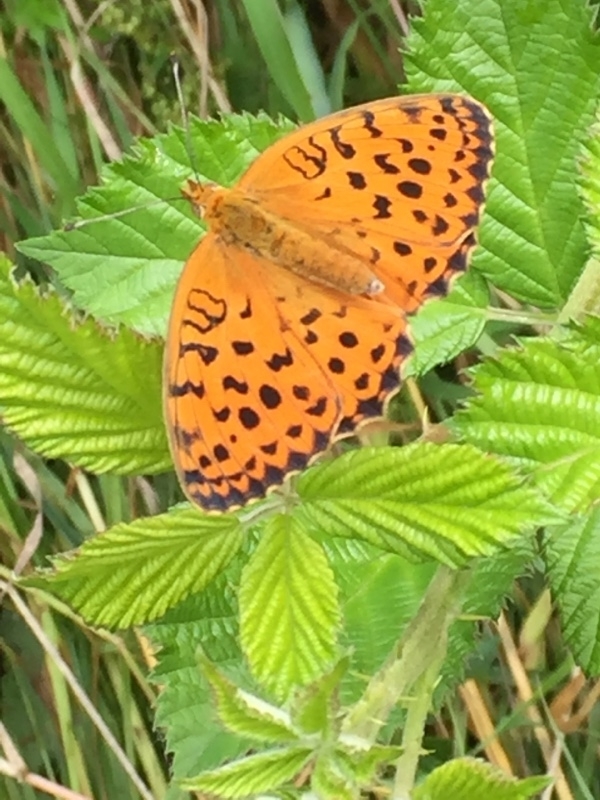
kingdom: Animalia
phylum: Arthropoda
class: Insecta
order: Lepidoptera
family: Nymphalidae
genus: Brenthis
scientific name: Brenthis daphne
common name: Marbled fritillary
